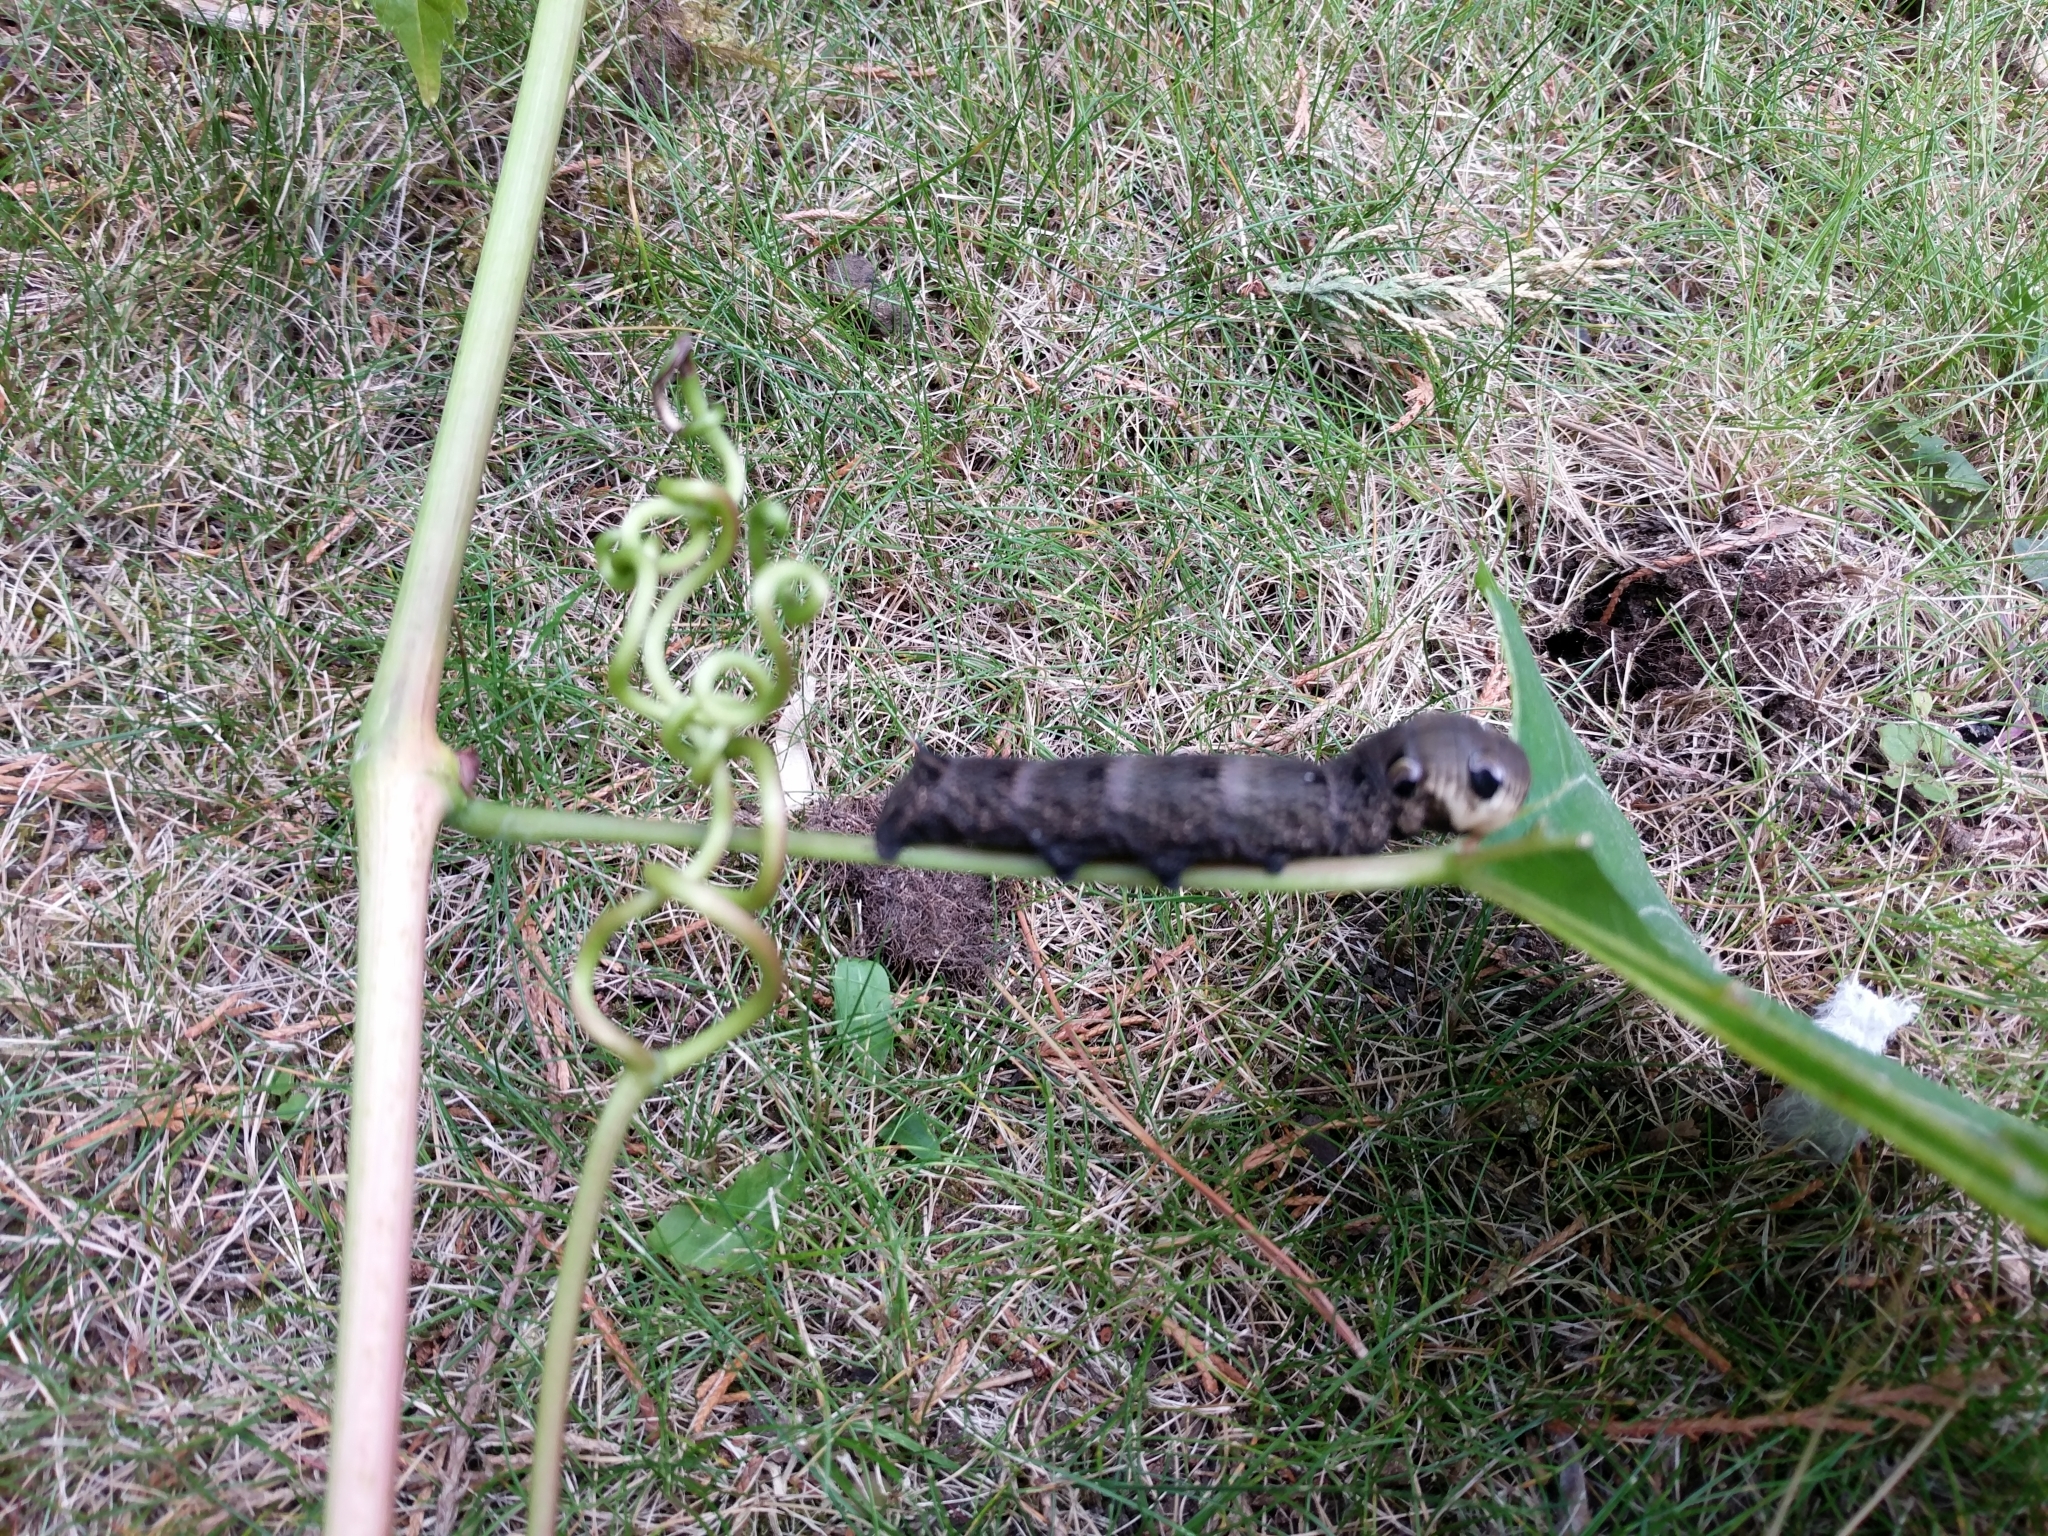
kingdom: Animalia
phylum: Arthropoda
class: Insecta
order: Lepidoptera
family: Sphingidae
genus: Deilephila
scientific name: Deilephila elpenor
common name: Elephant hawk-moth
